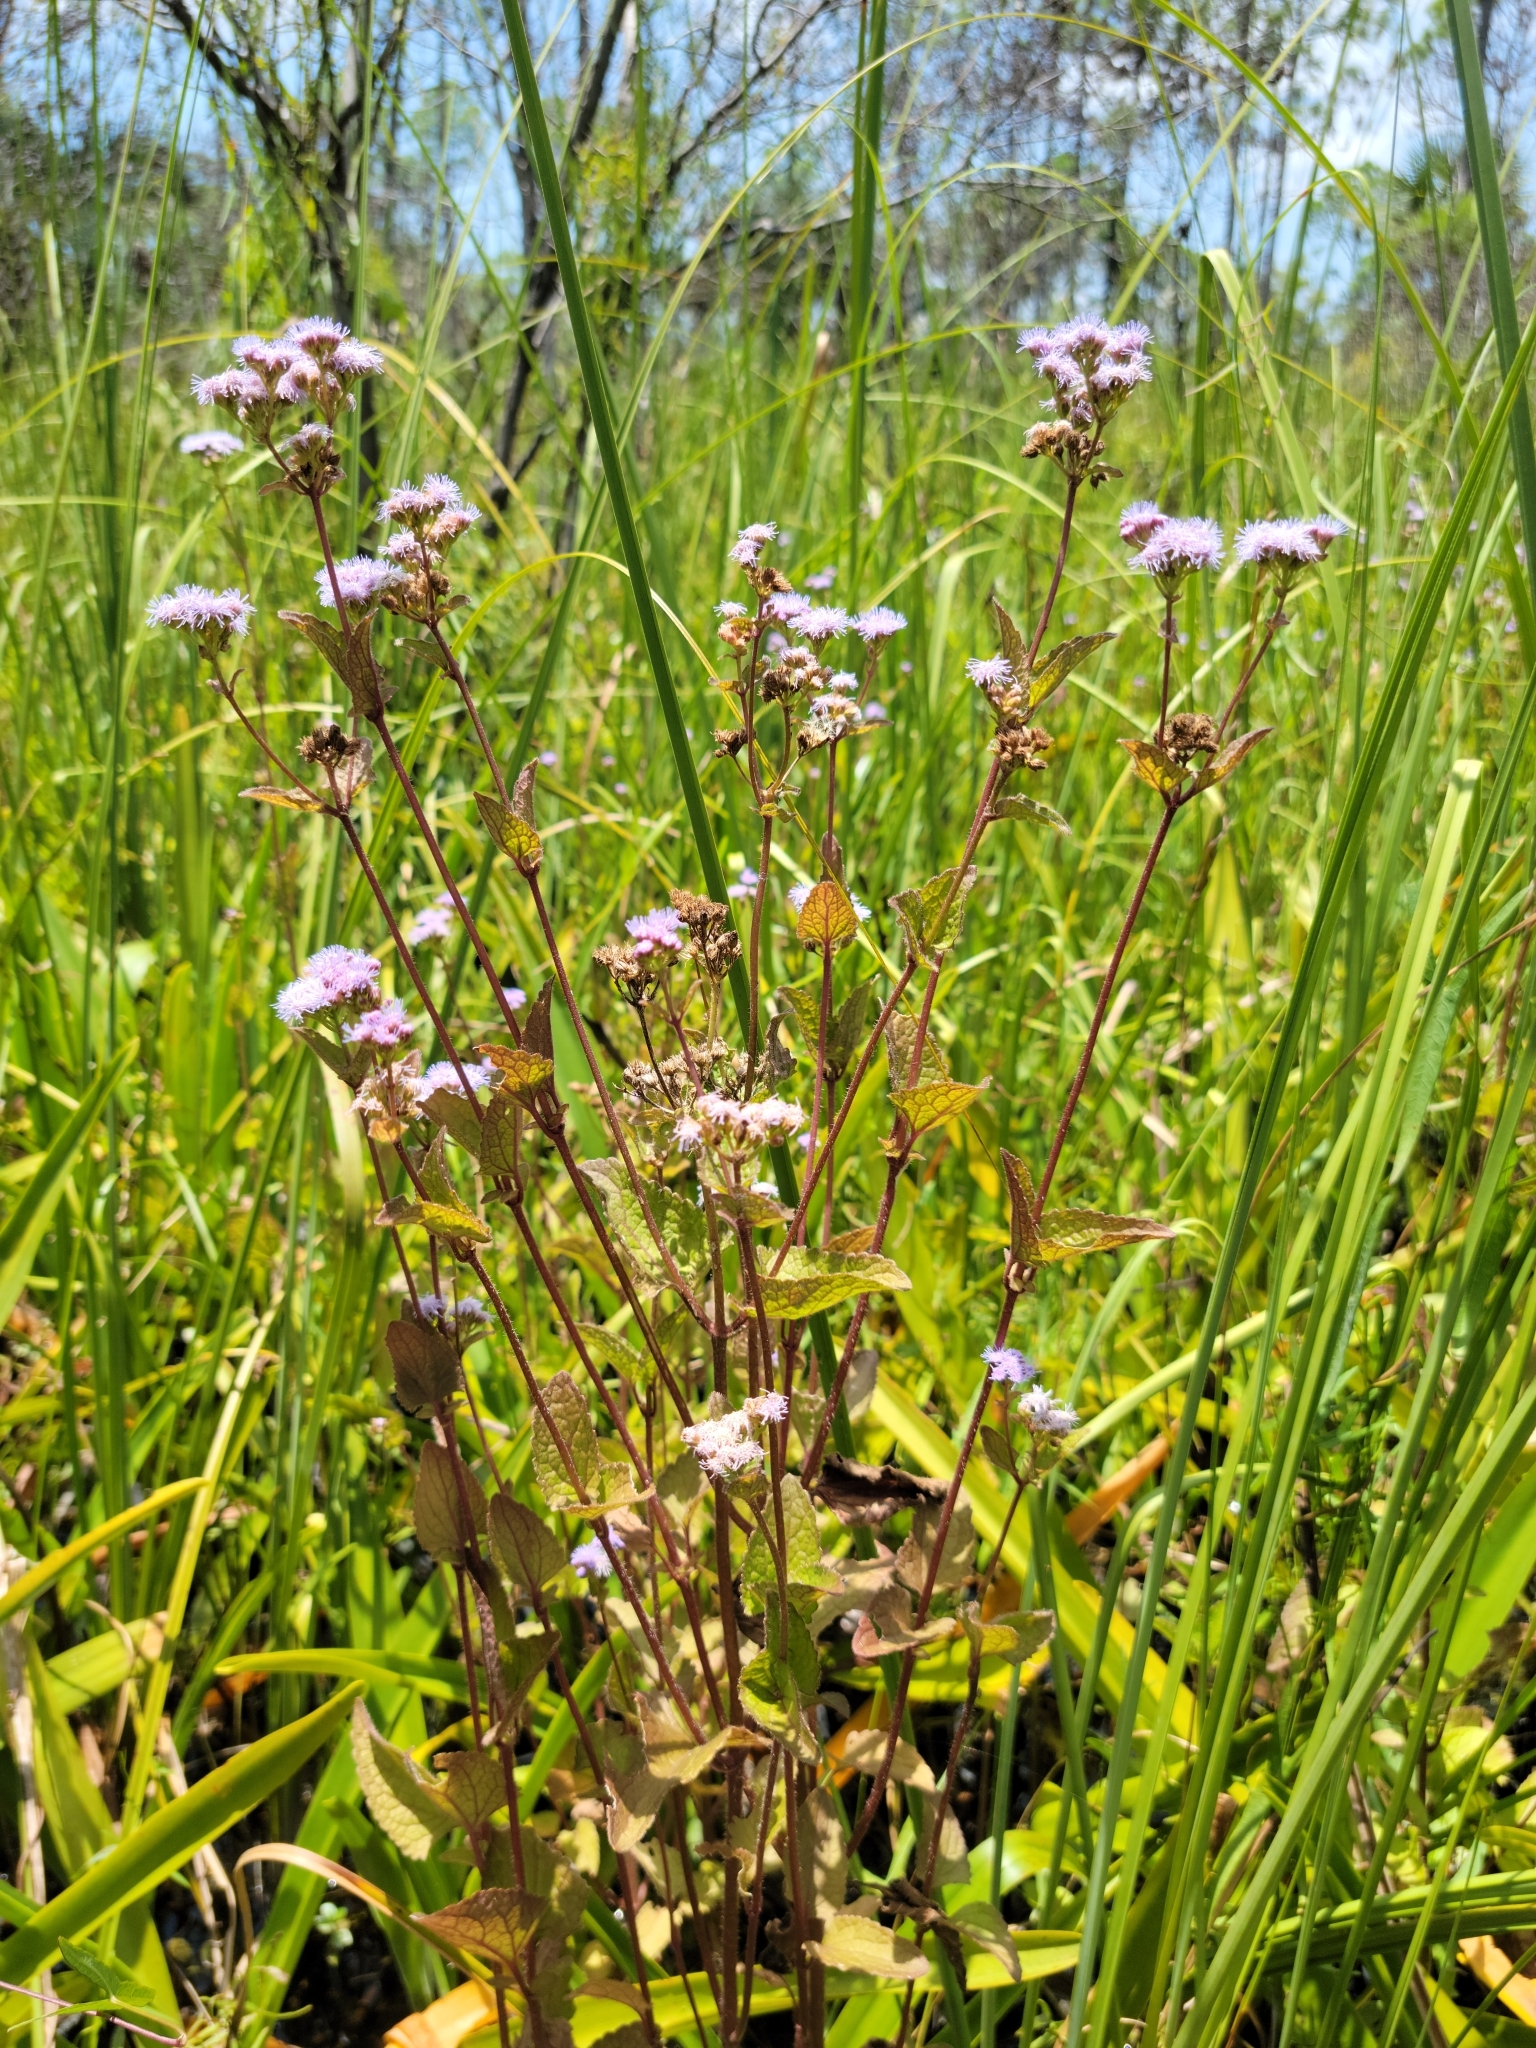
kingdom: Plantae
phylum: Tracheophyta
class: Magnoliopsida
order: Asterales
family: Asteraceae
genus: Conoclinium
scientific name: Conoclinium coelestinum
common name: Blue mistflower
